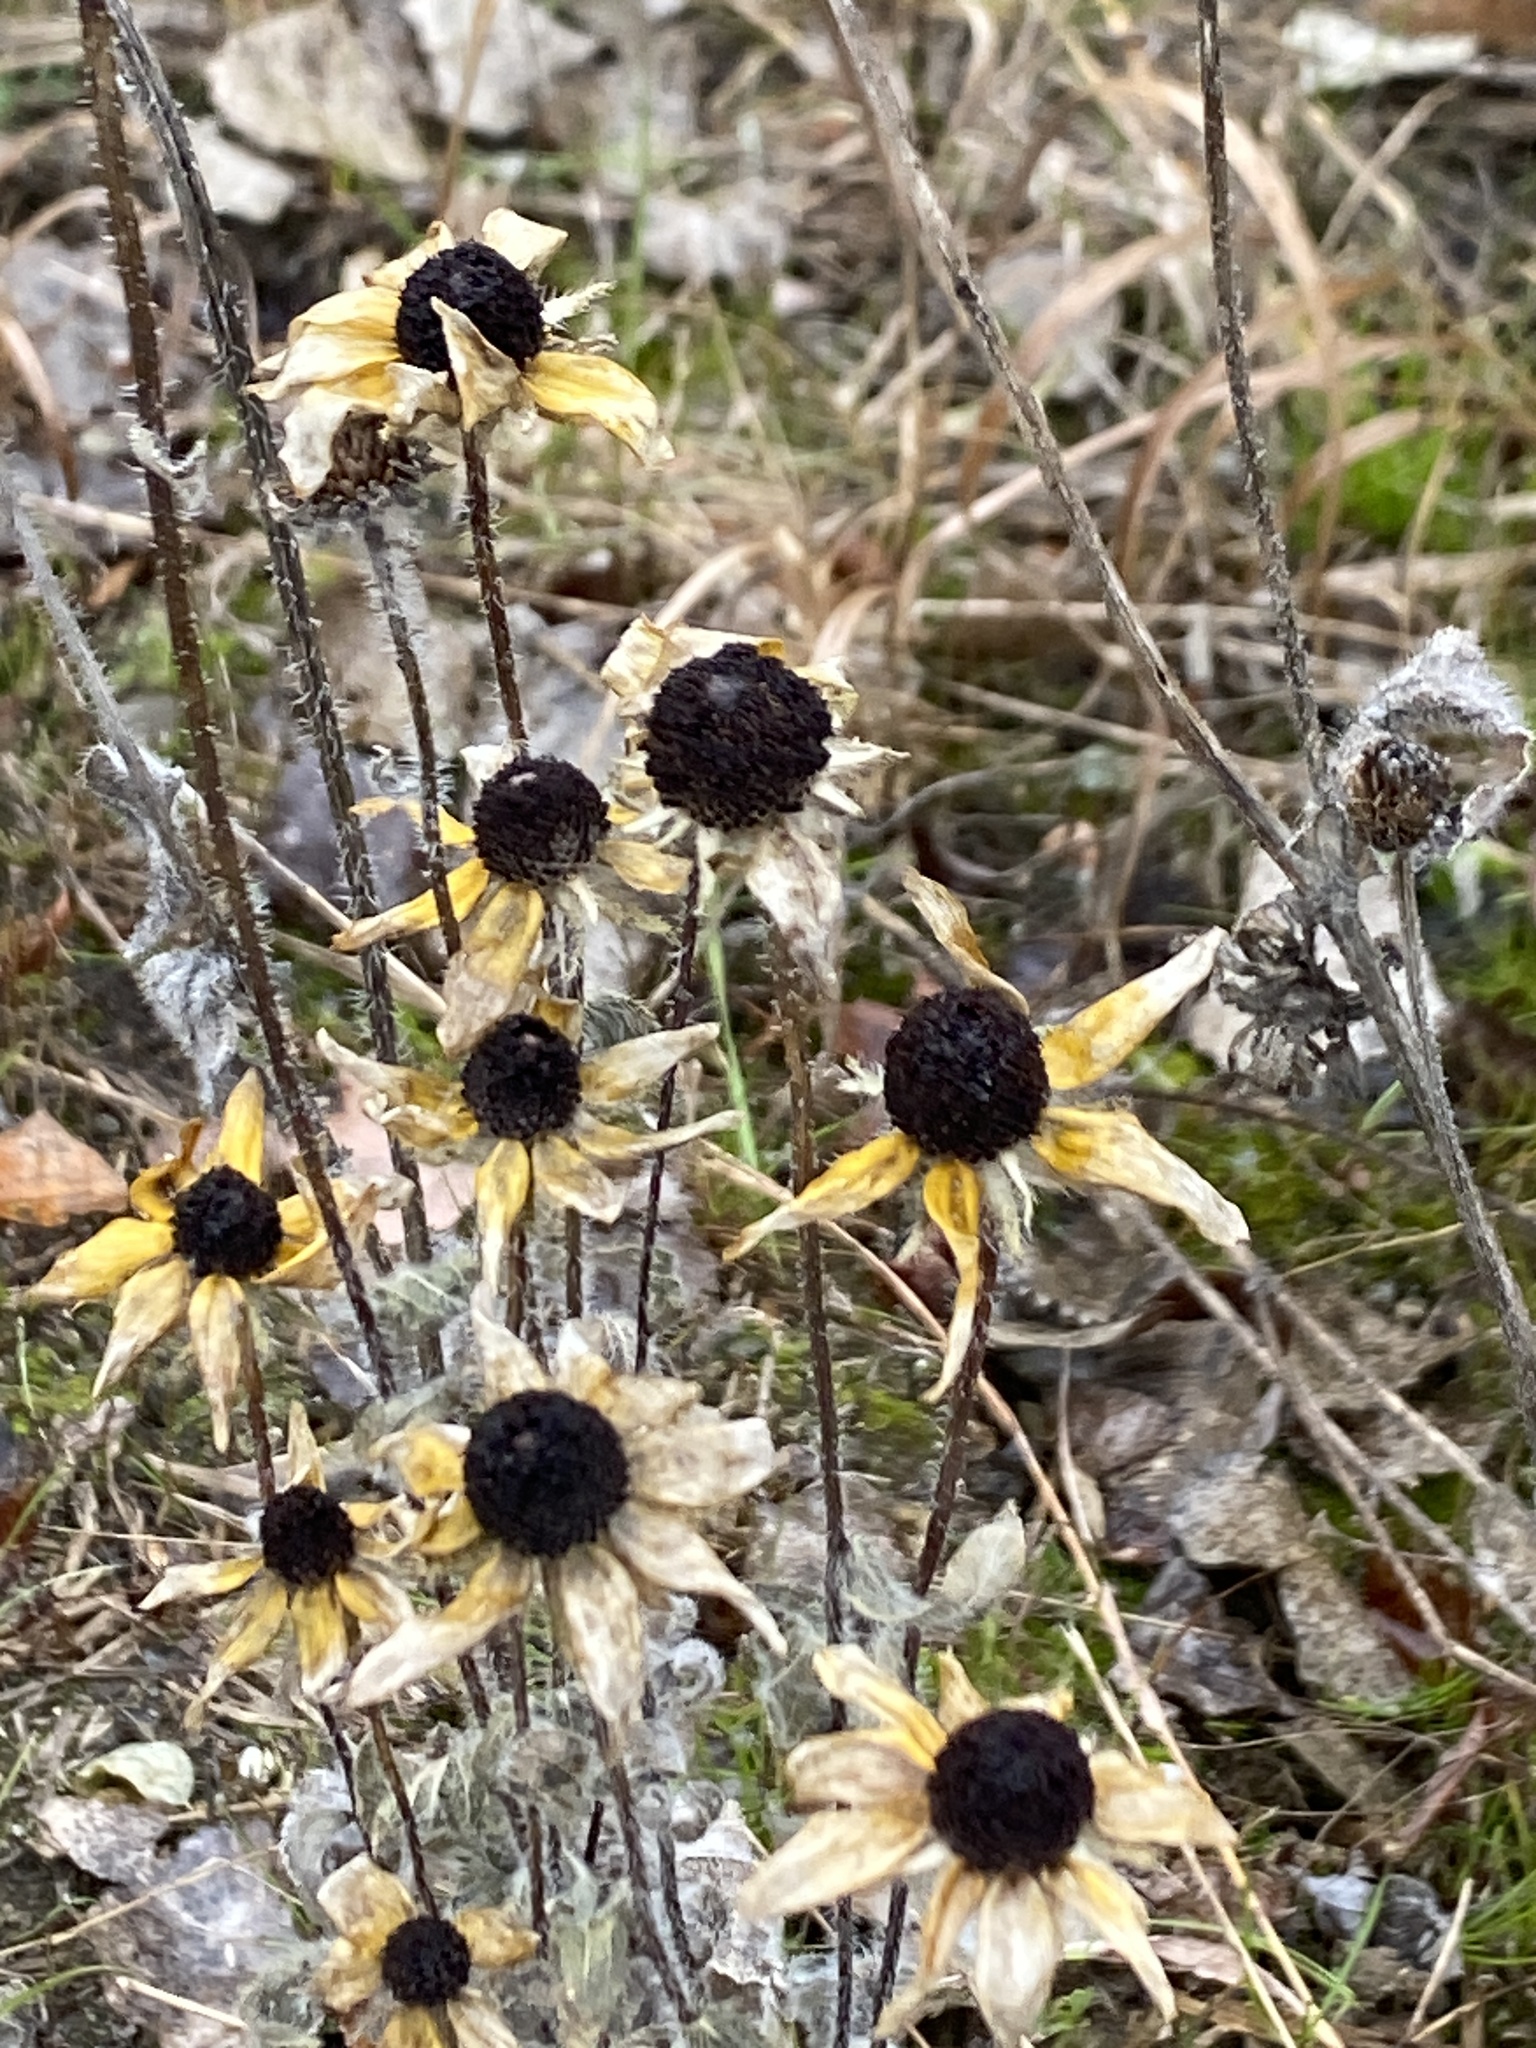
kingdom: Plantae
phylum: Tracheophyta
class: Magnoliopsida
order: Asterales
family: Asteraceae
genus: Rudbeckia
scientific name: Rudbeckia hirta
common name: Black-eyed-susan
